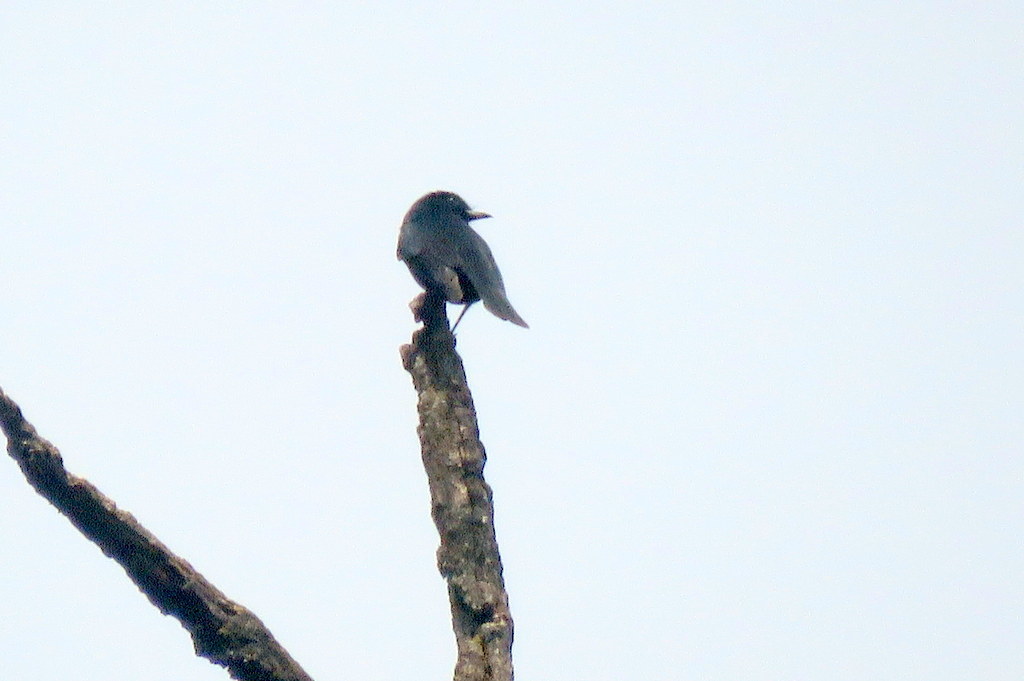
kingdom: Animalia
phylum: Chordata
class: Aves
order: Passeriformes
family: Tyrannidae
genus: Knipolegus
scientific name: Knipolegus aterrimus
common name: White-winged black tyrant
